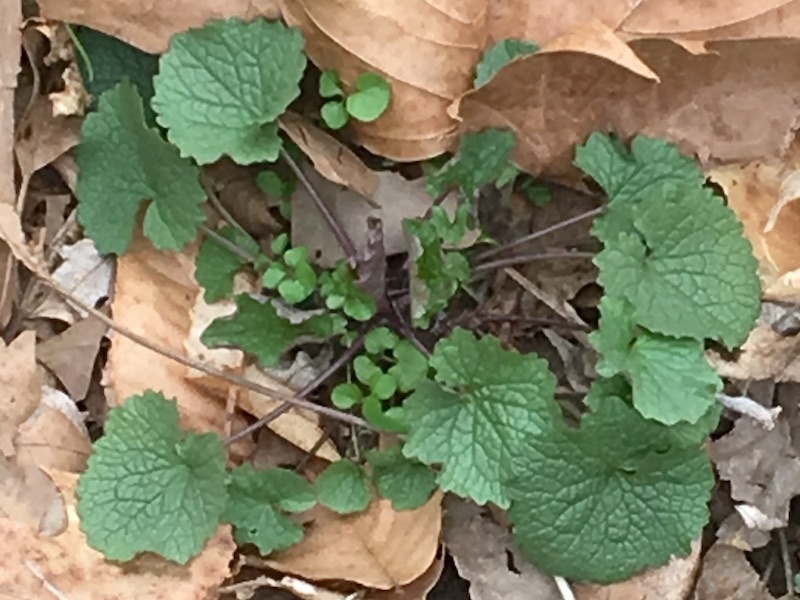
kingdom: Plantae
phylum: Tracheophyta
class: Magnoliopsida
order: Brassicales
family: Brassicaceae
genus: Alliaria
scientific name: Alliaria petiolata
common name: Garlic mustard
